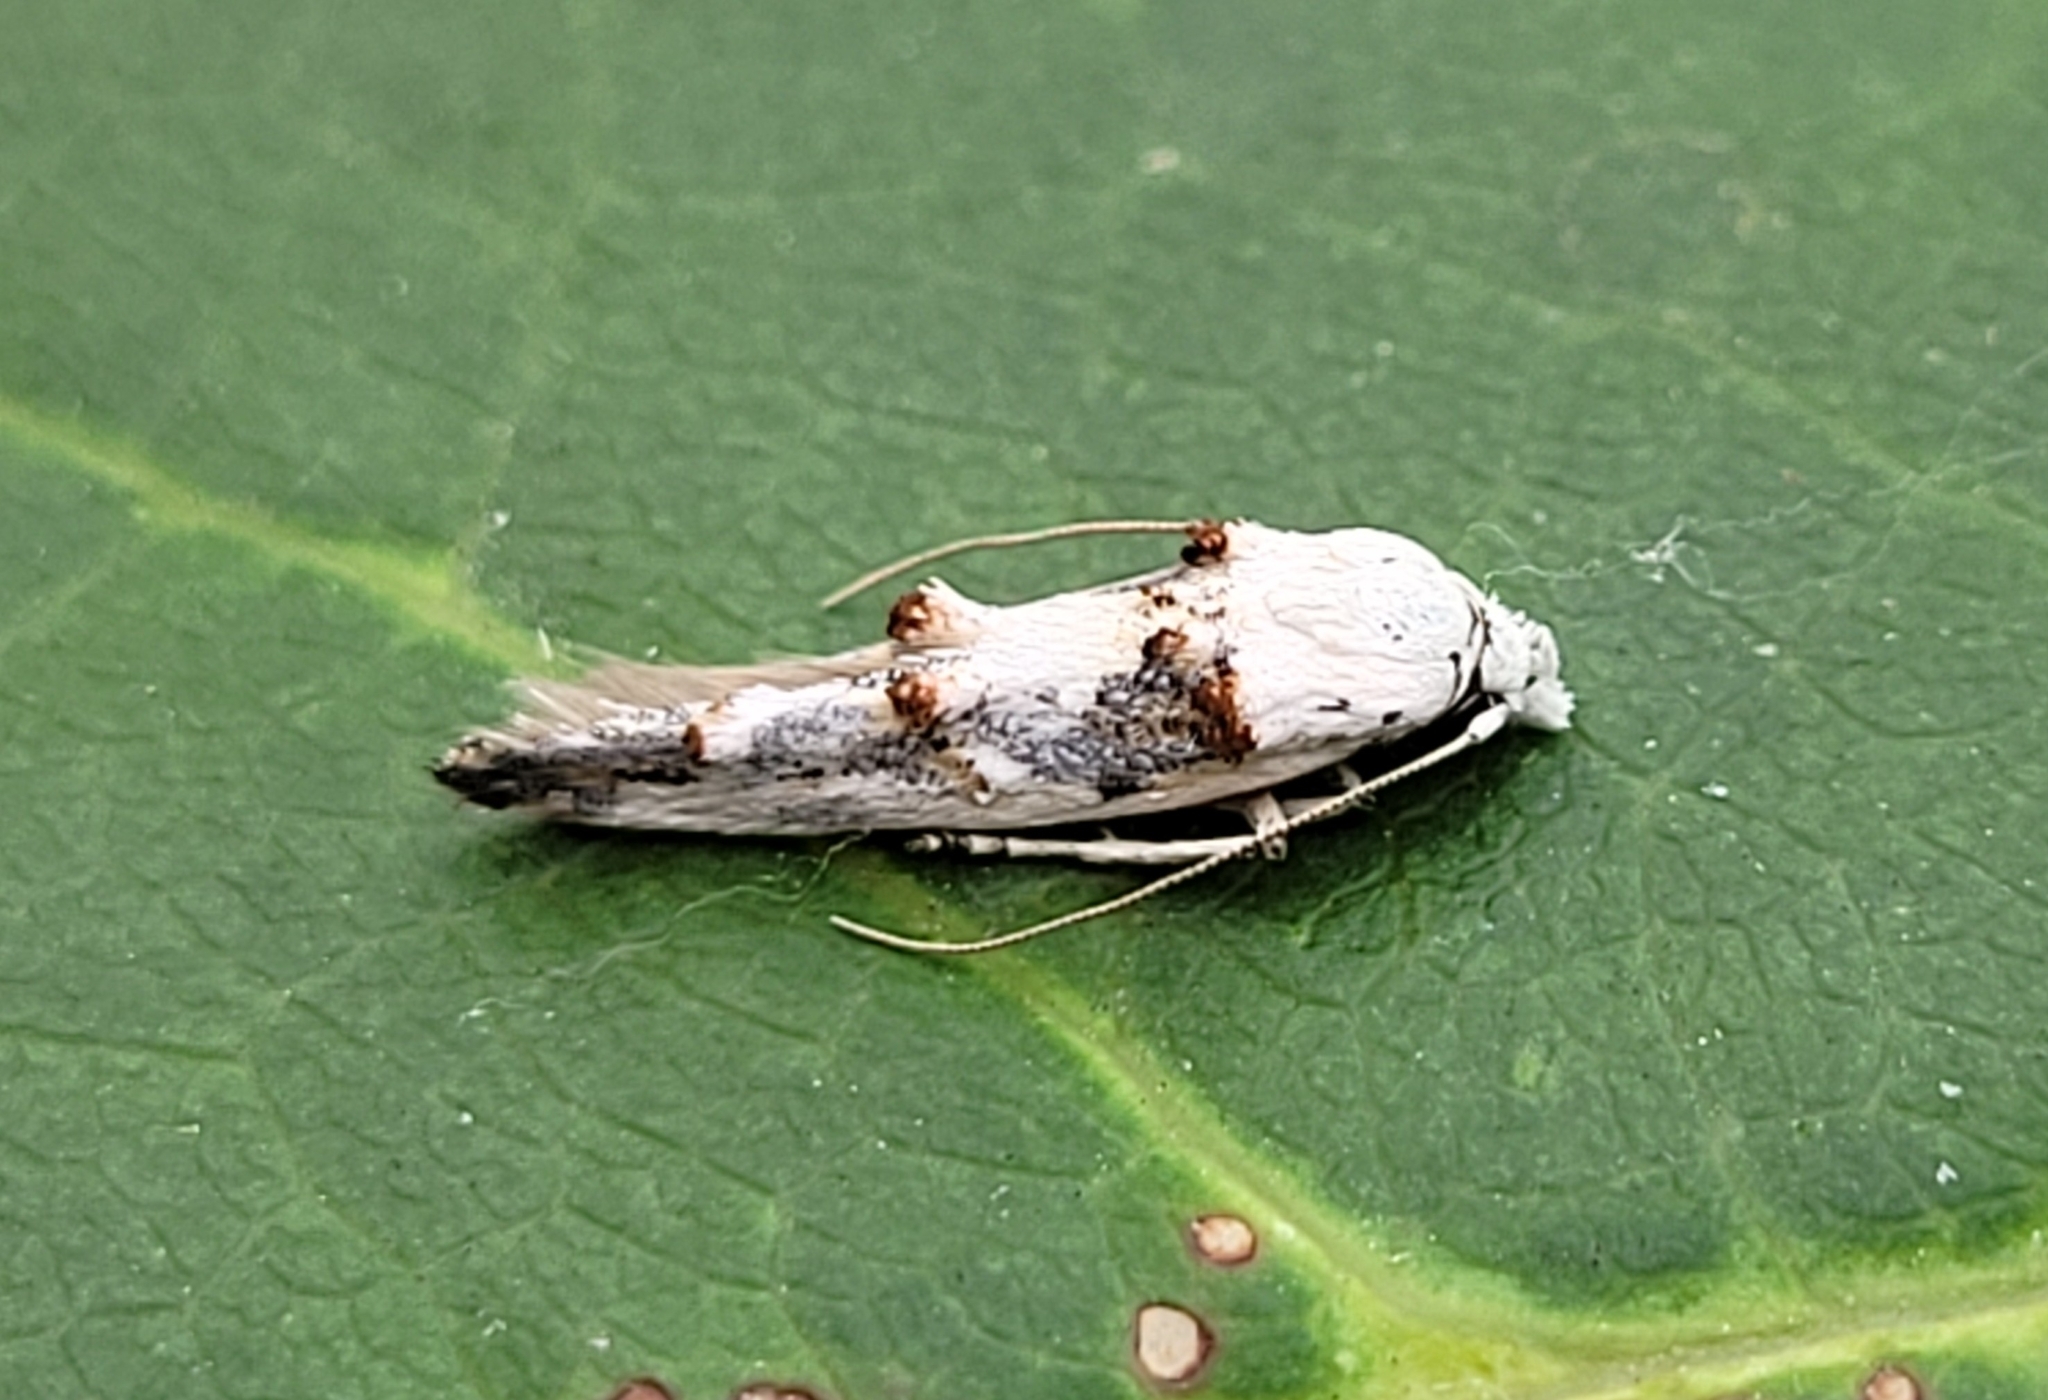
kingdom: Animalia
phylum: Arthropoda
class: Insecta
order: Lepidoptera
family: Momphidae
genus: Mompha
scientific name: Mompha claudiella
